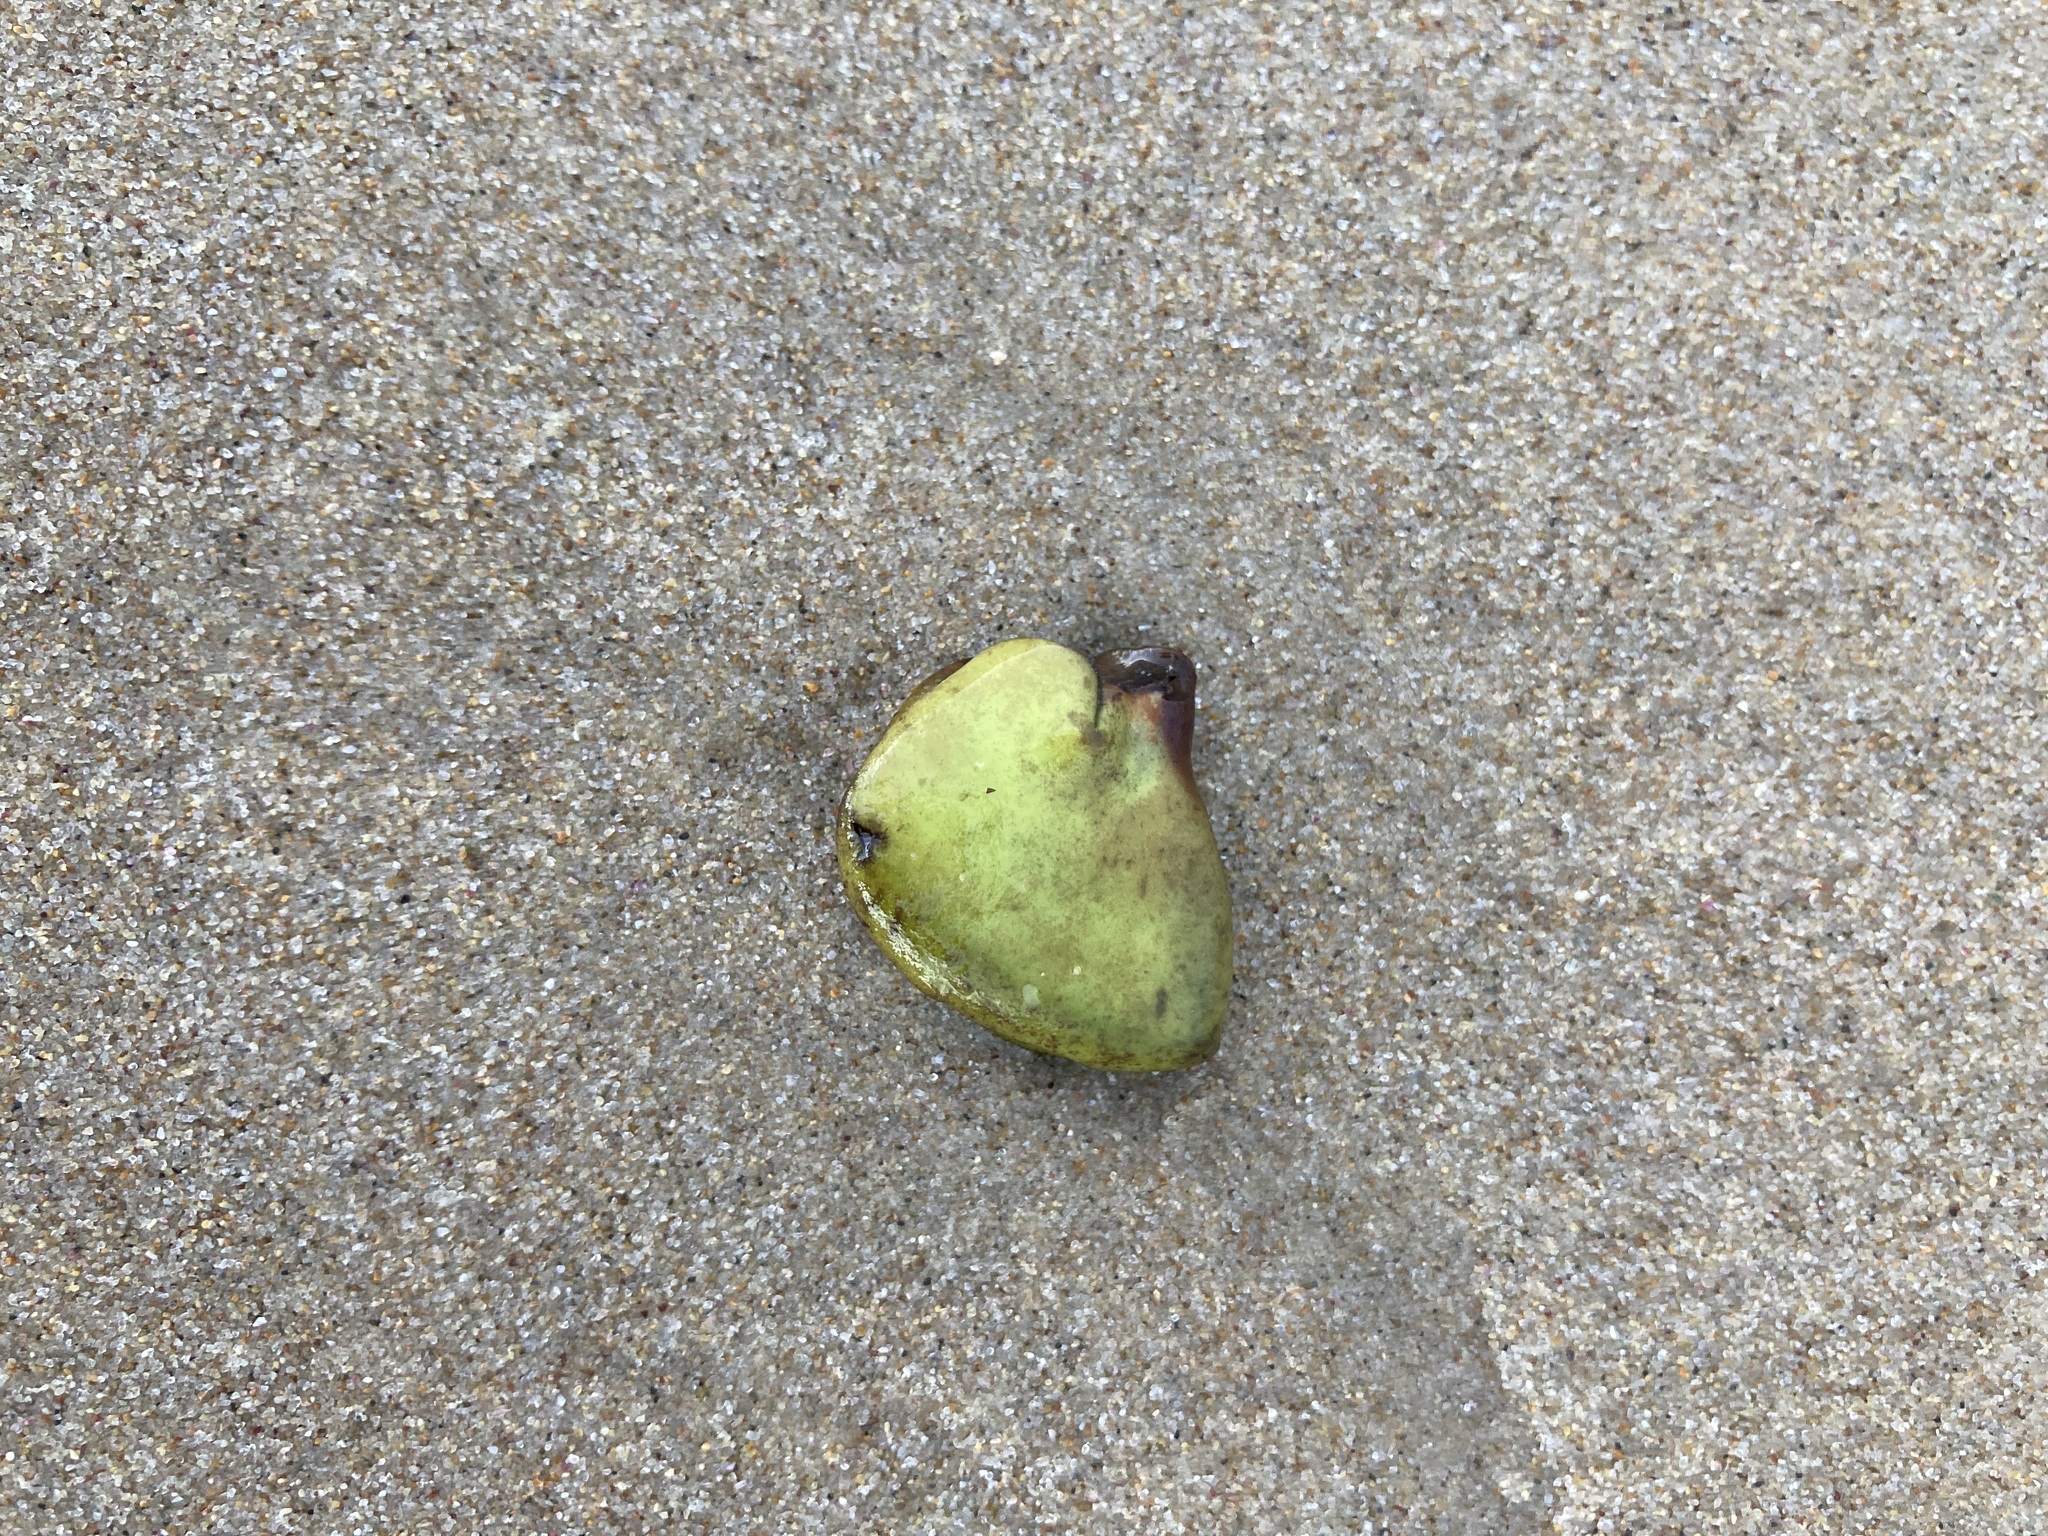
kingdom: Plantae
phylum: Tracheophyta
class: Magnoliopsida
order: Lamiales
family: Acanthaceae
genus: Avicennia
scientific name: Avicennia marina
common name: Gray mangrove
